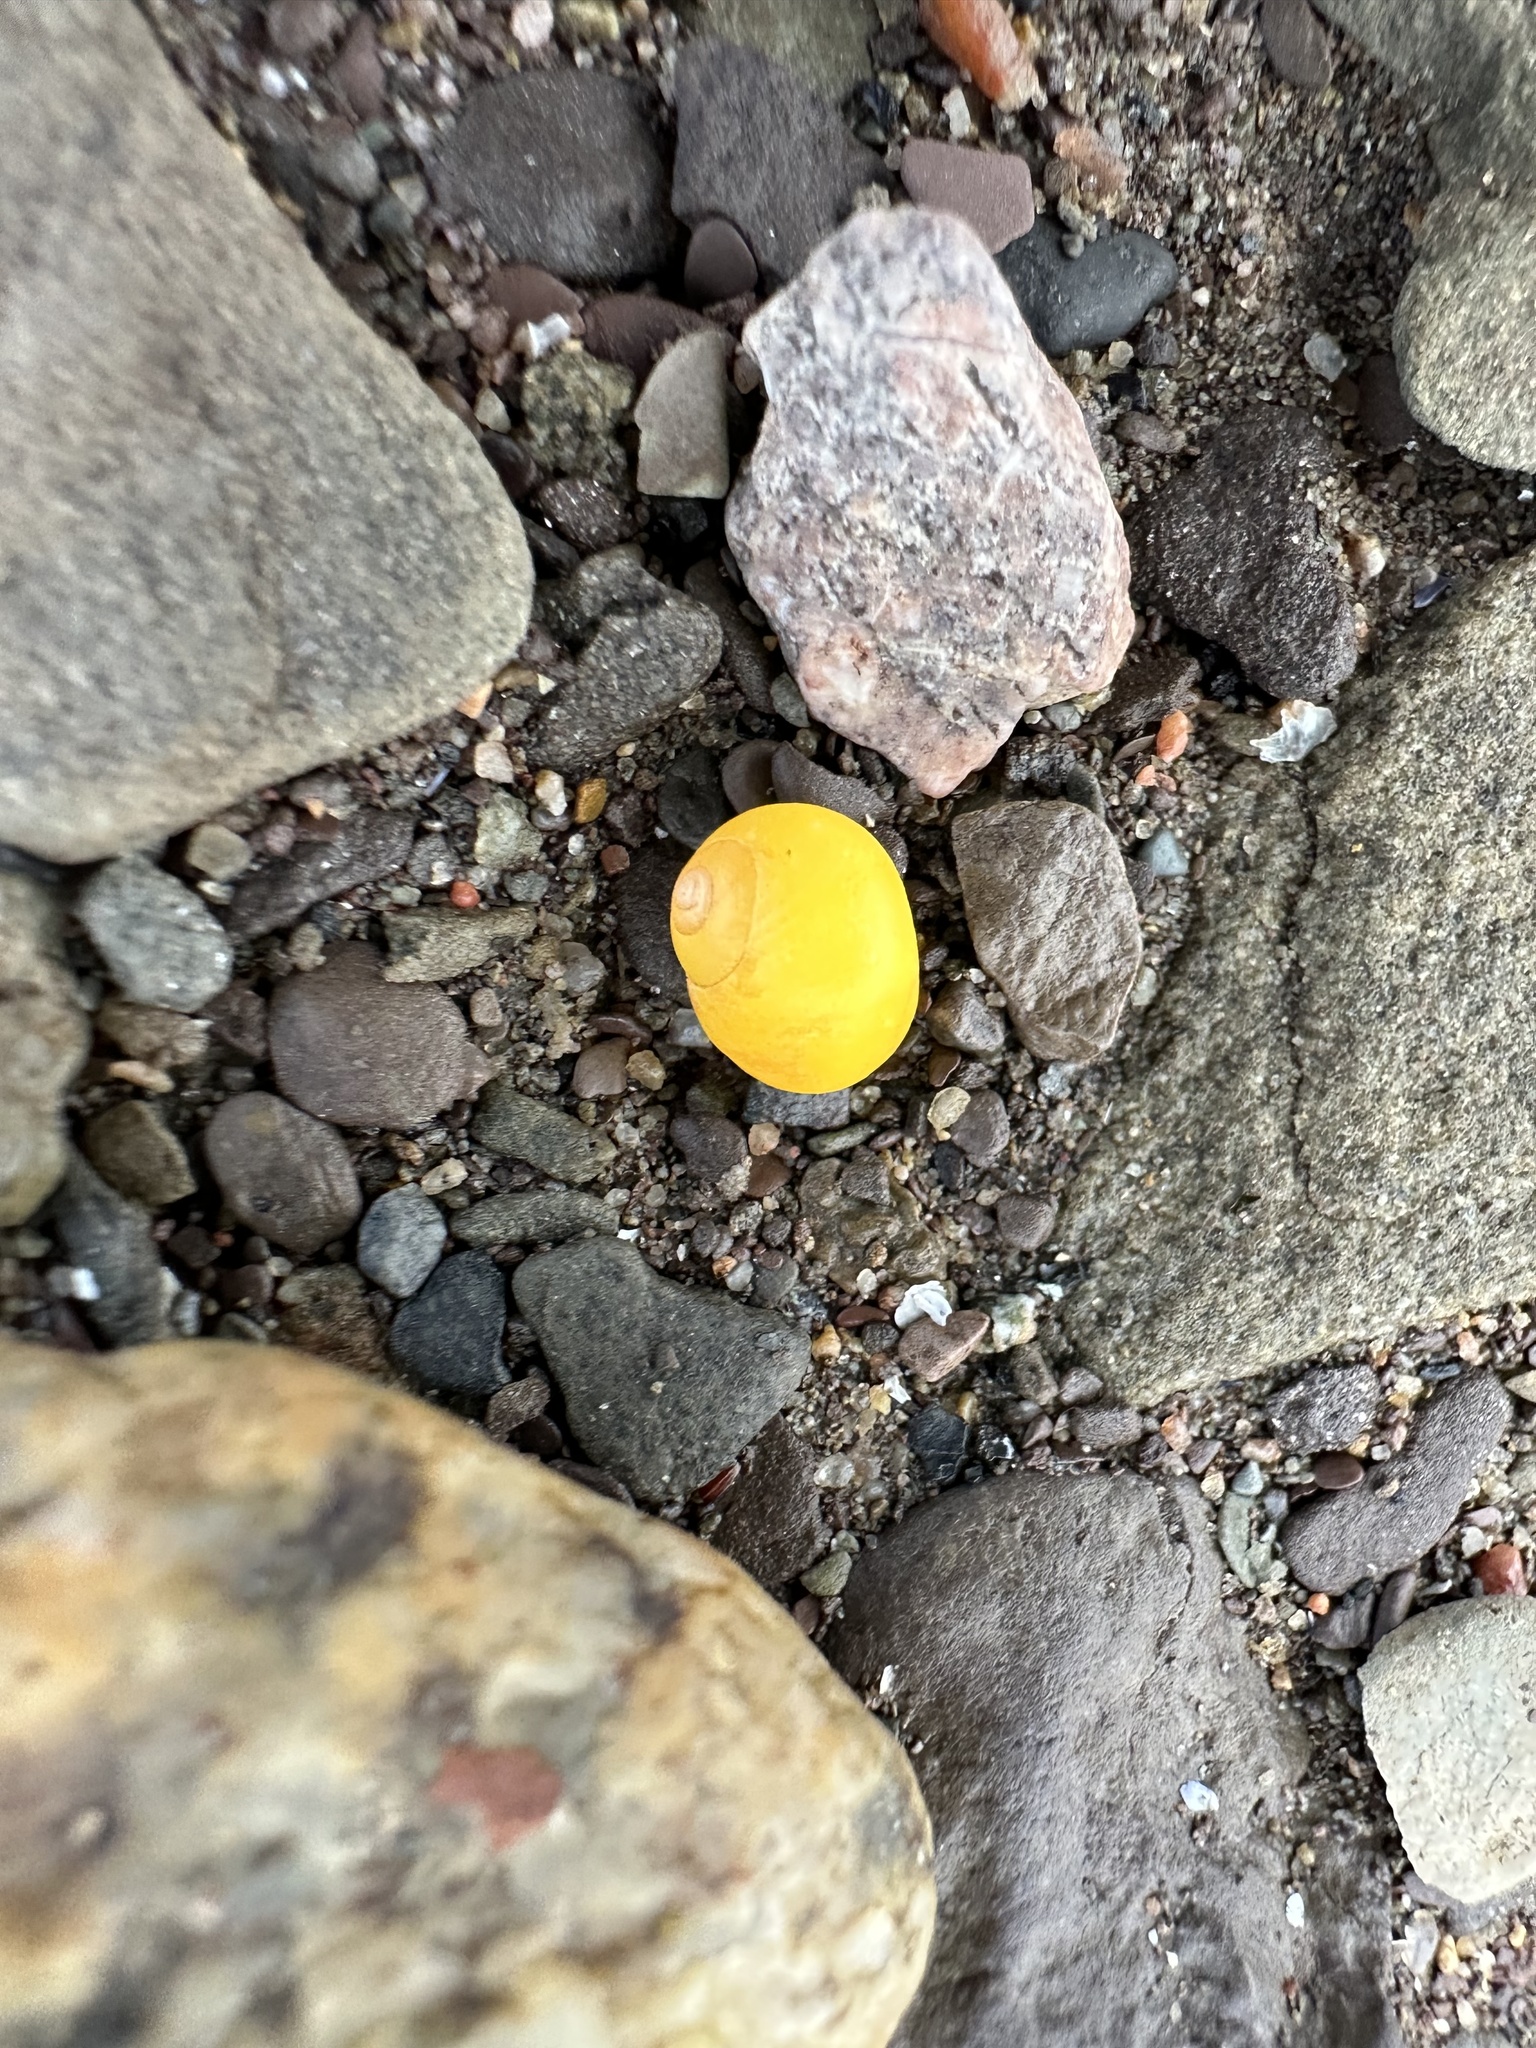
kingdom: Animalia
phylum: Mollusca
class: Gastropoda
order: Littorinimorpha
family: Littorinidae
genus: Littorina
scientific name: Littorina obtusata
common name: Flat periwinkle
